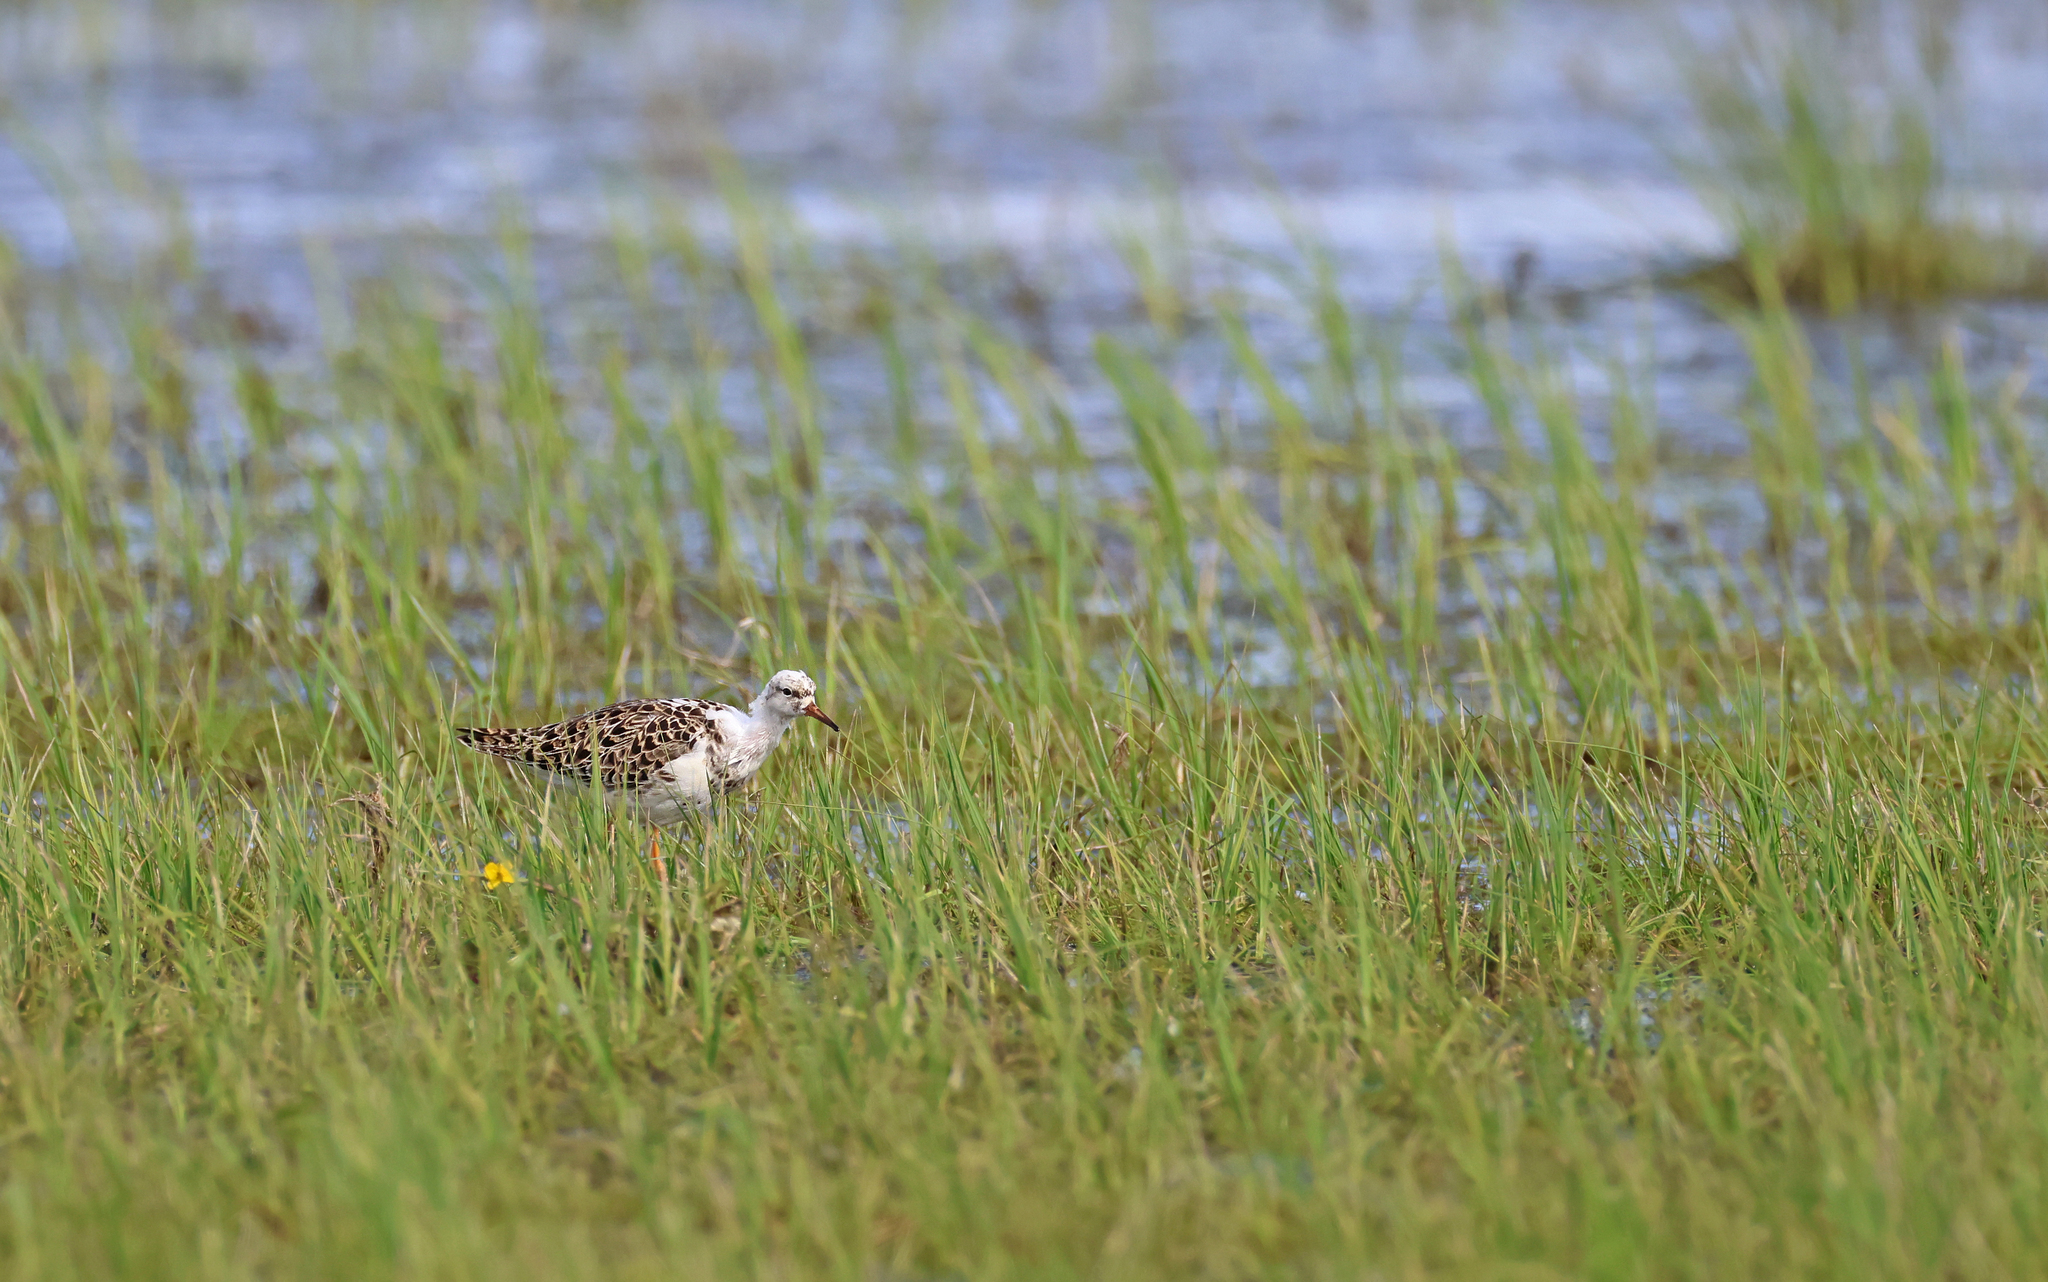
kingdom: Animalia
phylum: Chordata
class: Aves
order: Charadriiformes
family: Scolopacidae
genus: Calidris
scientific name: Calidris pugnax
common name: Ruff
